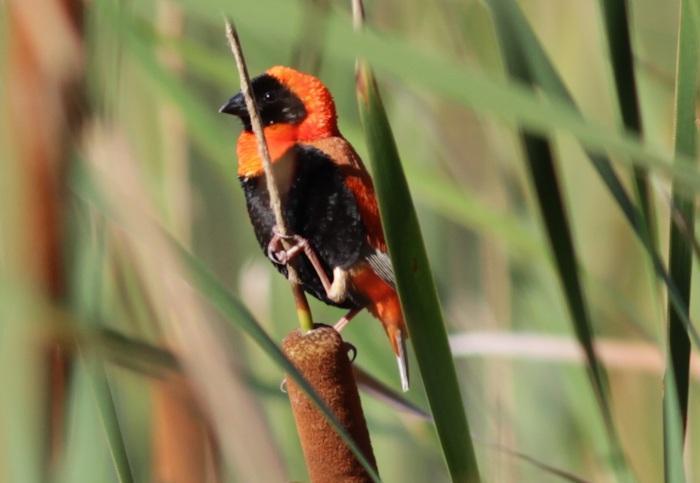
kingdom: Animalia
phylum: Chordata
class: Aves
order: Passeriformes
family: Ploceidae
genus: Euplectes
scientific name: Euplectes orix
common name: Southern red bishop
